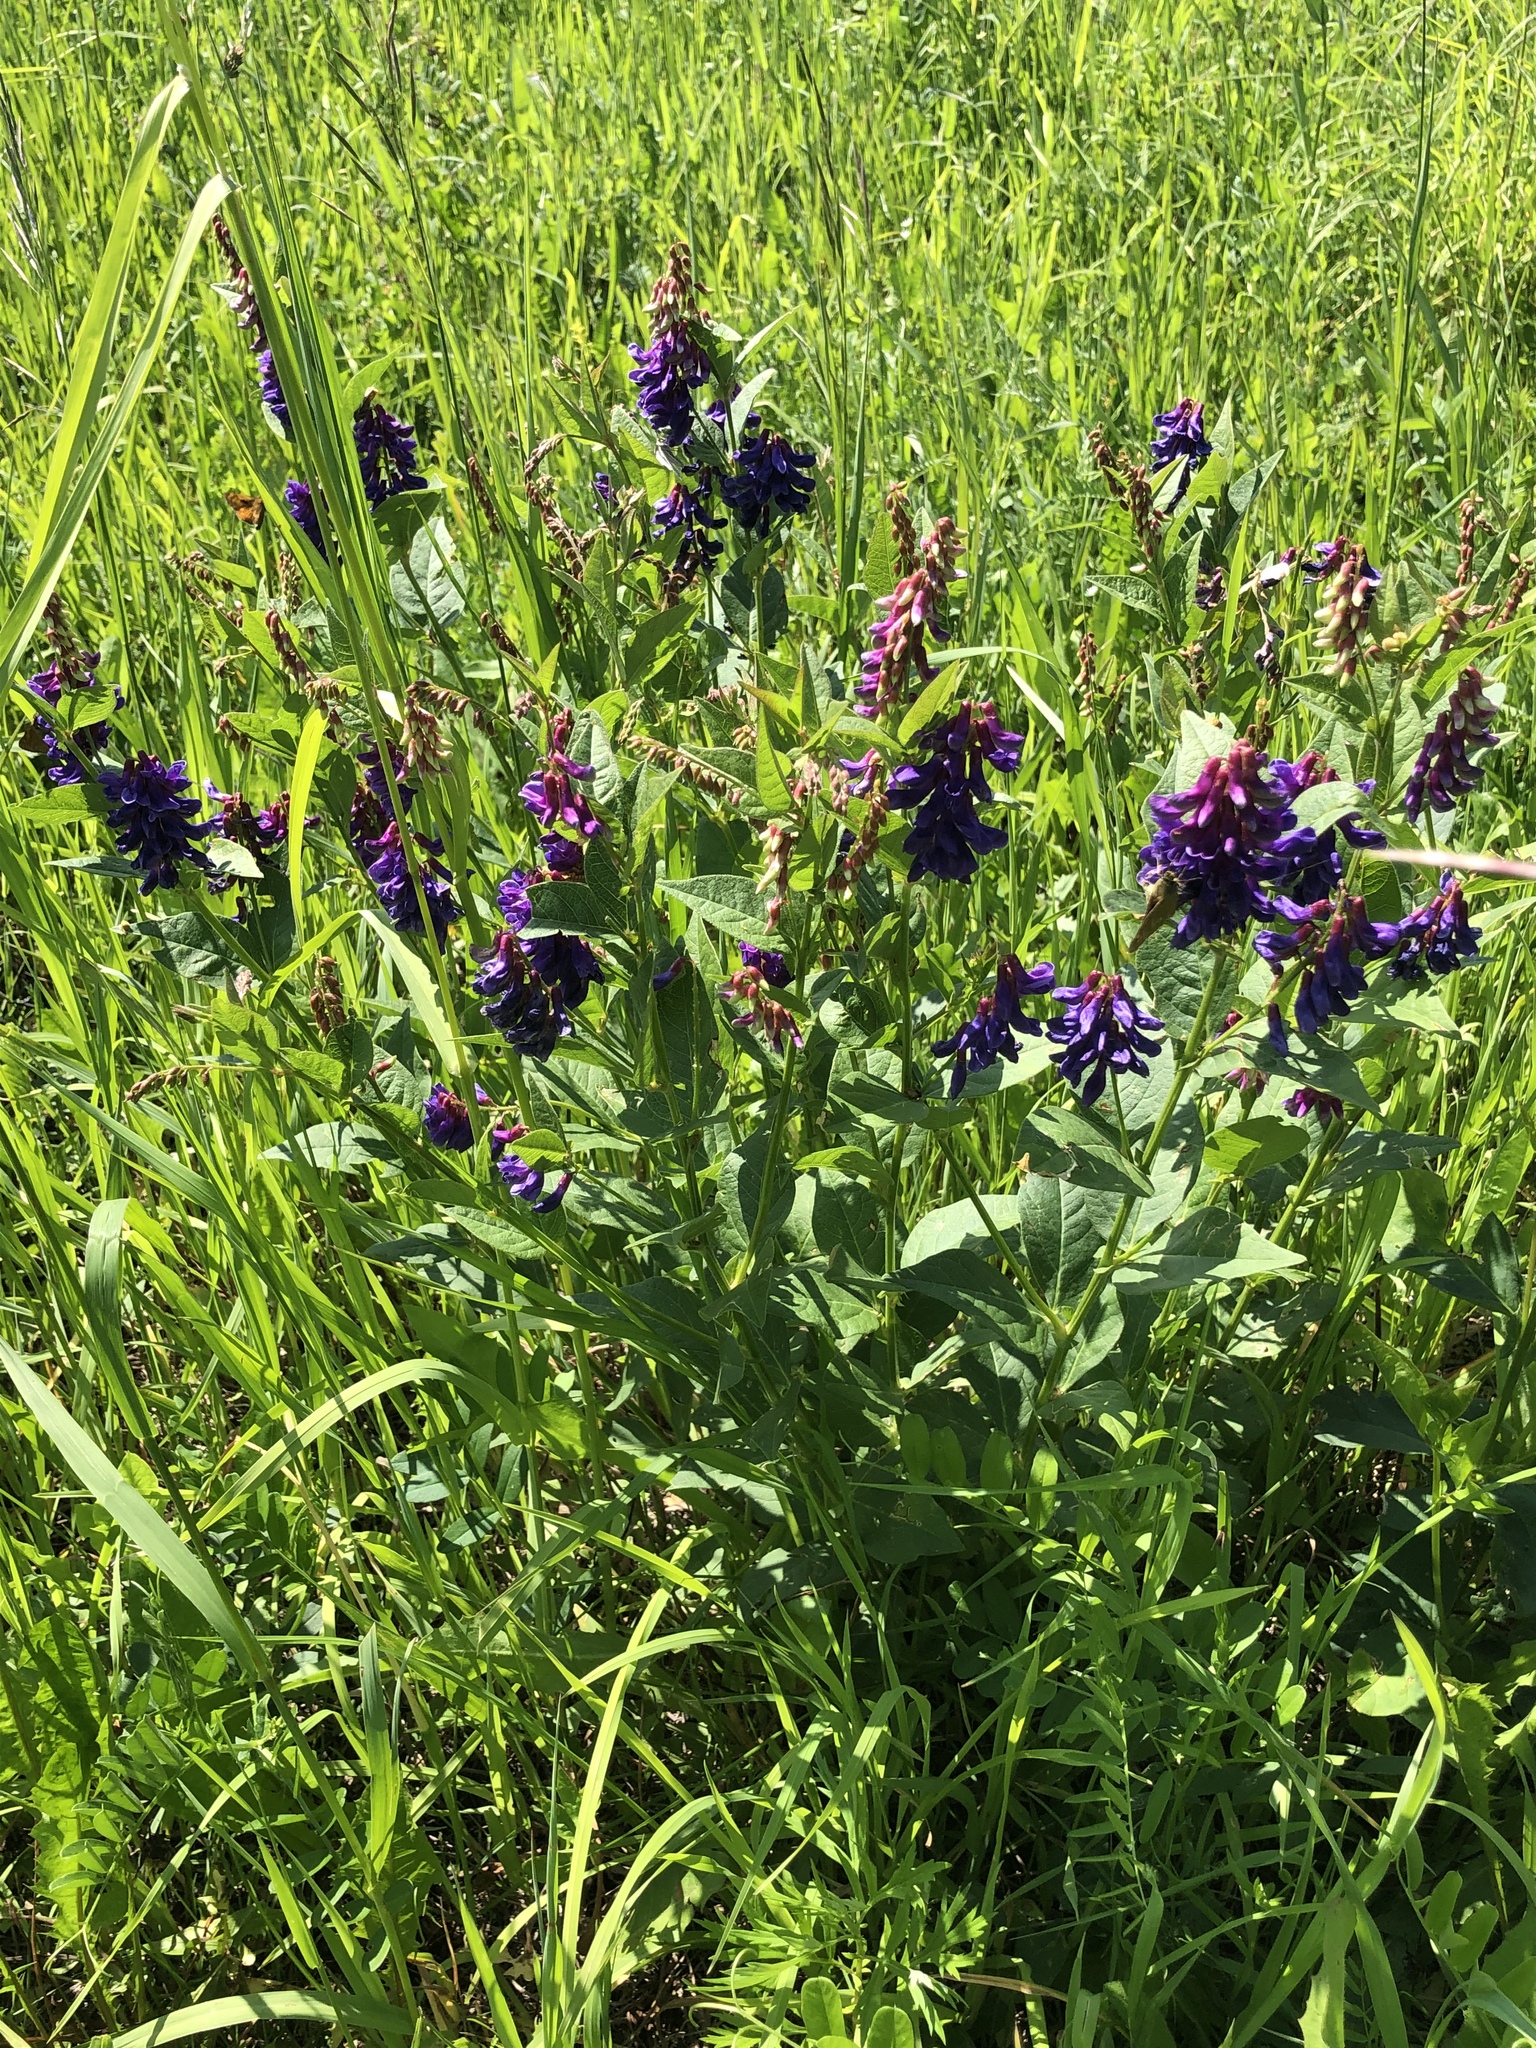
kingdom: Plantae
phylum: Tracheophyta
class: Magnoliopsida
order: Fabales
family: Fabaceae
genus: Vicia
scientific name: Vicia unijuga
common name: Two-leaf vetch
